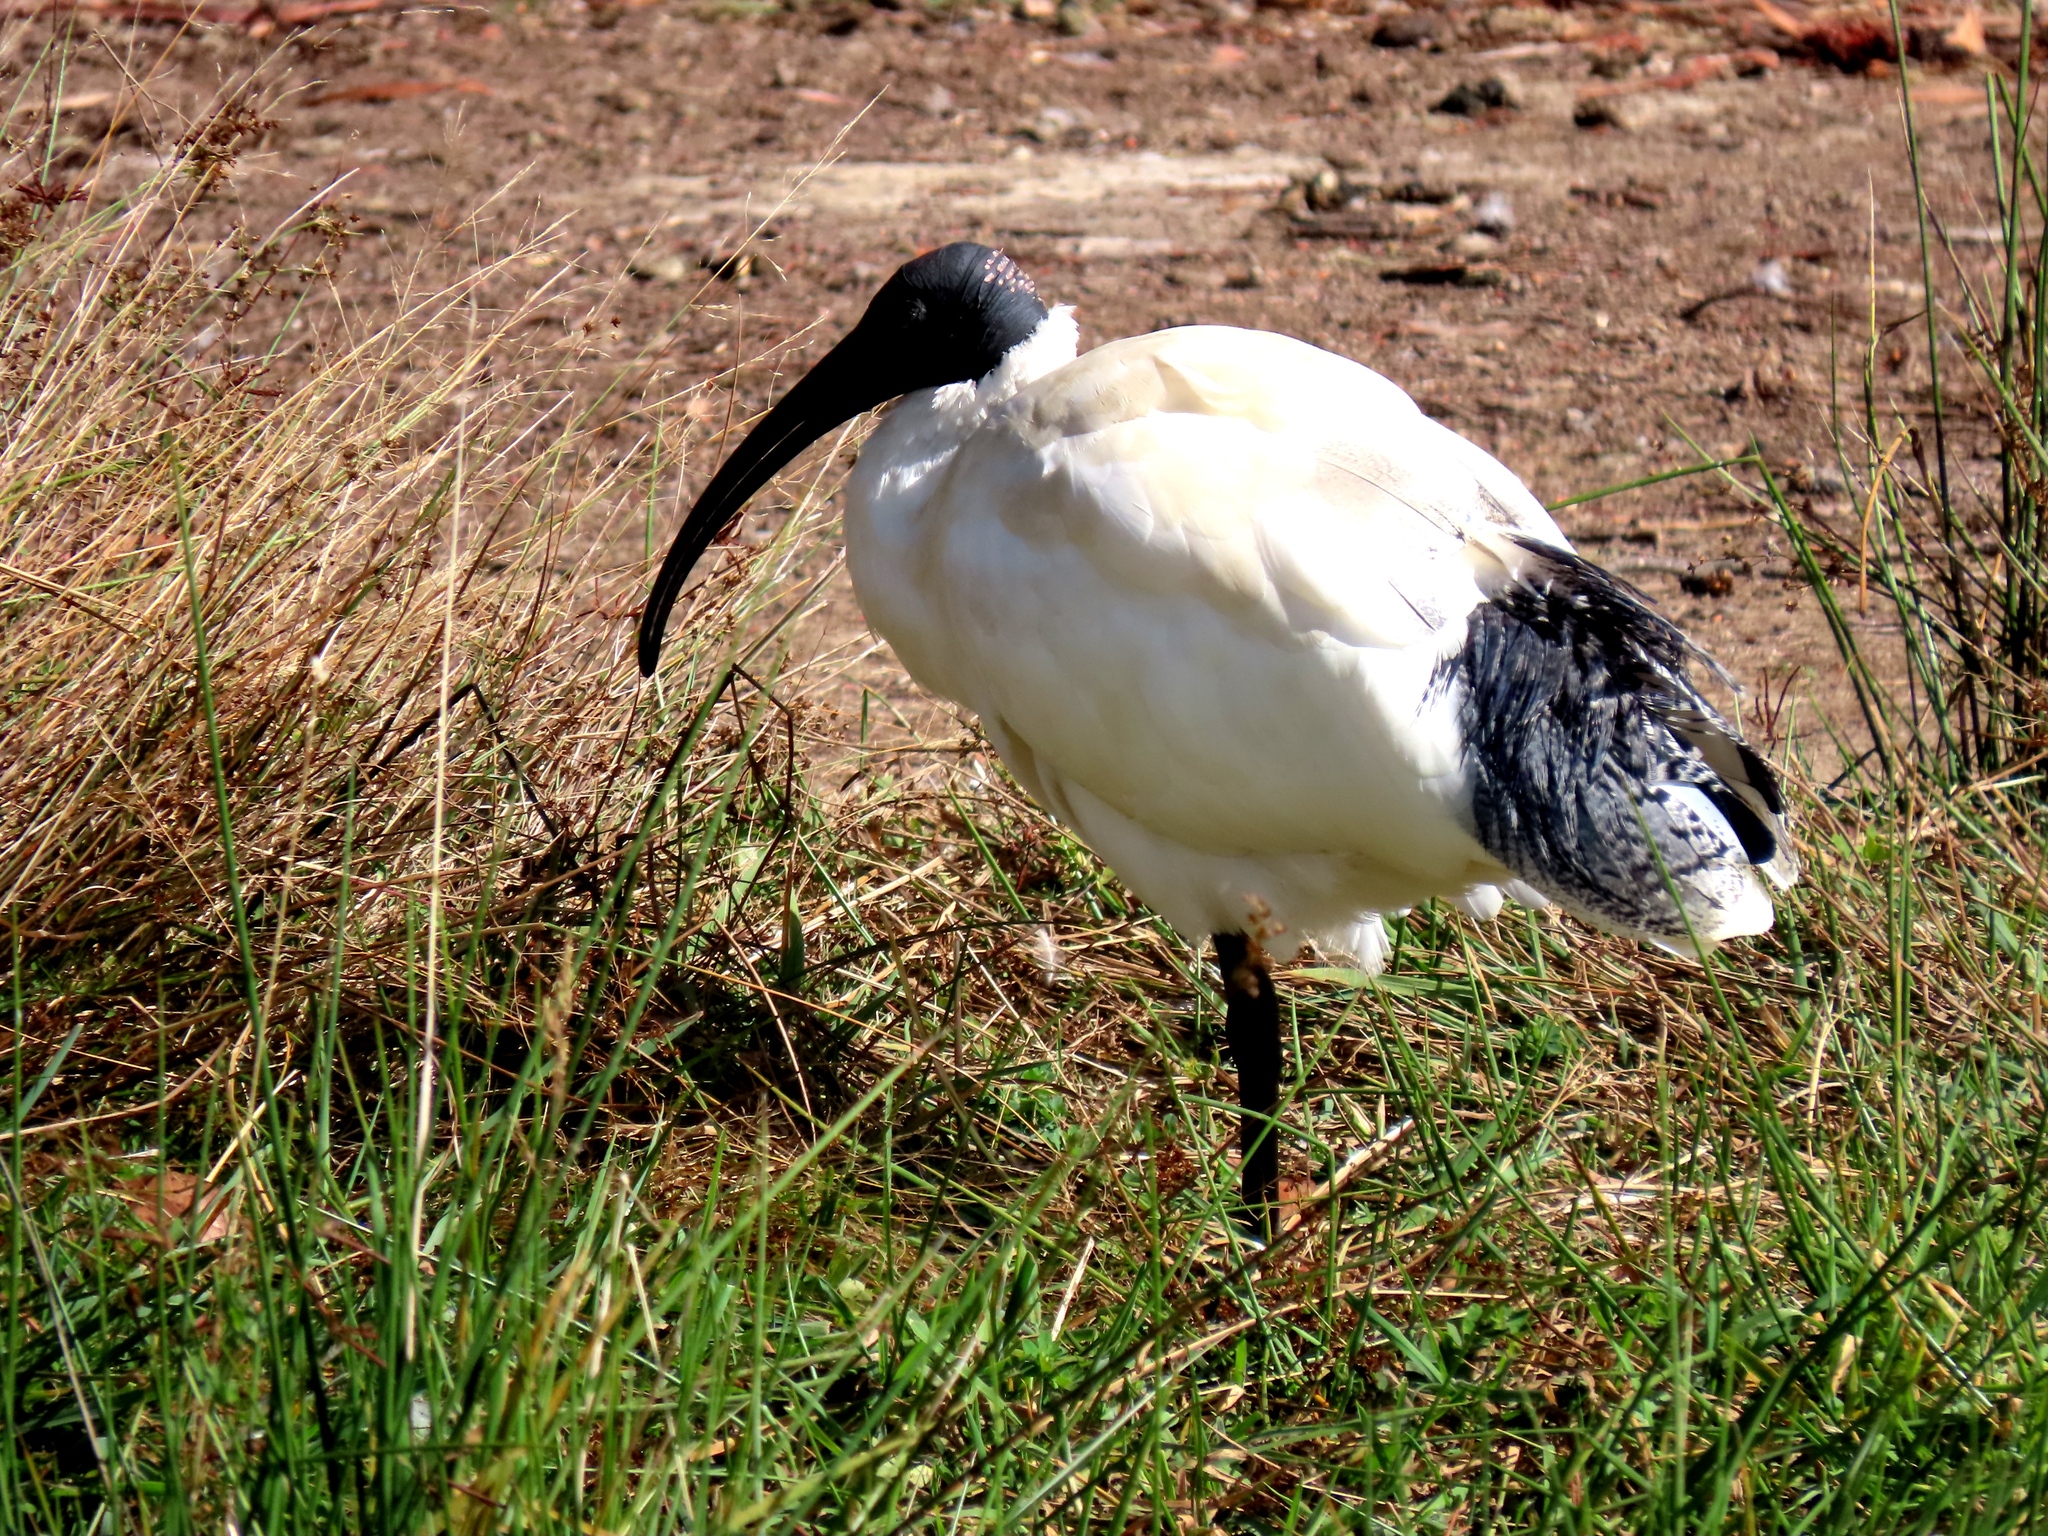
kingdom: Animalia
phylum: Chordata
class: Aves
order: Pelecaniformes
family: Threskiornithidae
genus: Threskiornis
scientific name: Threskiornis molucca
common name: Australian white ibis
